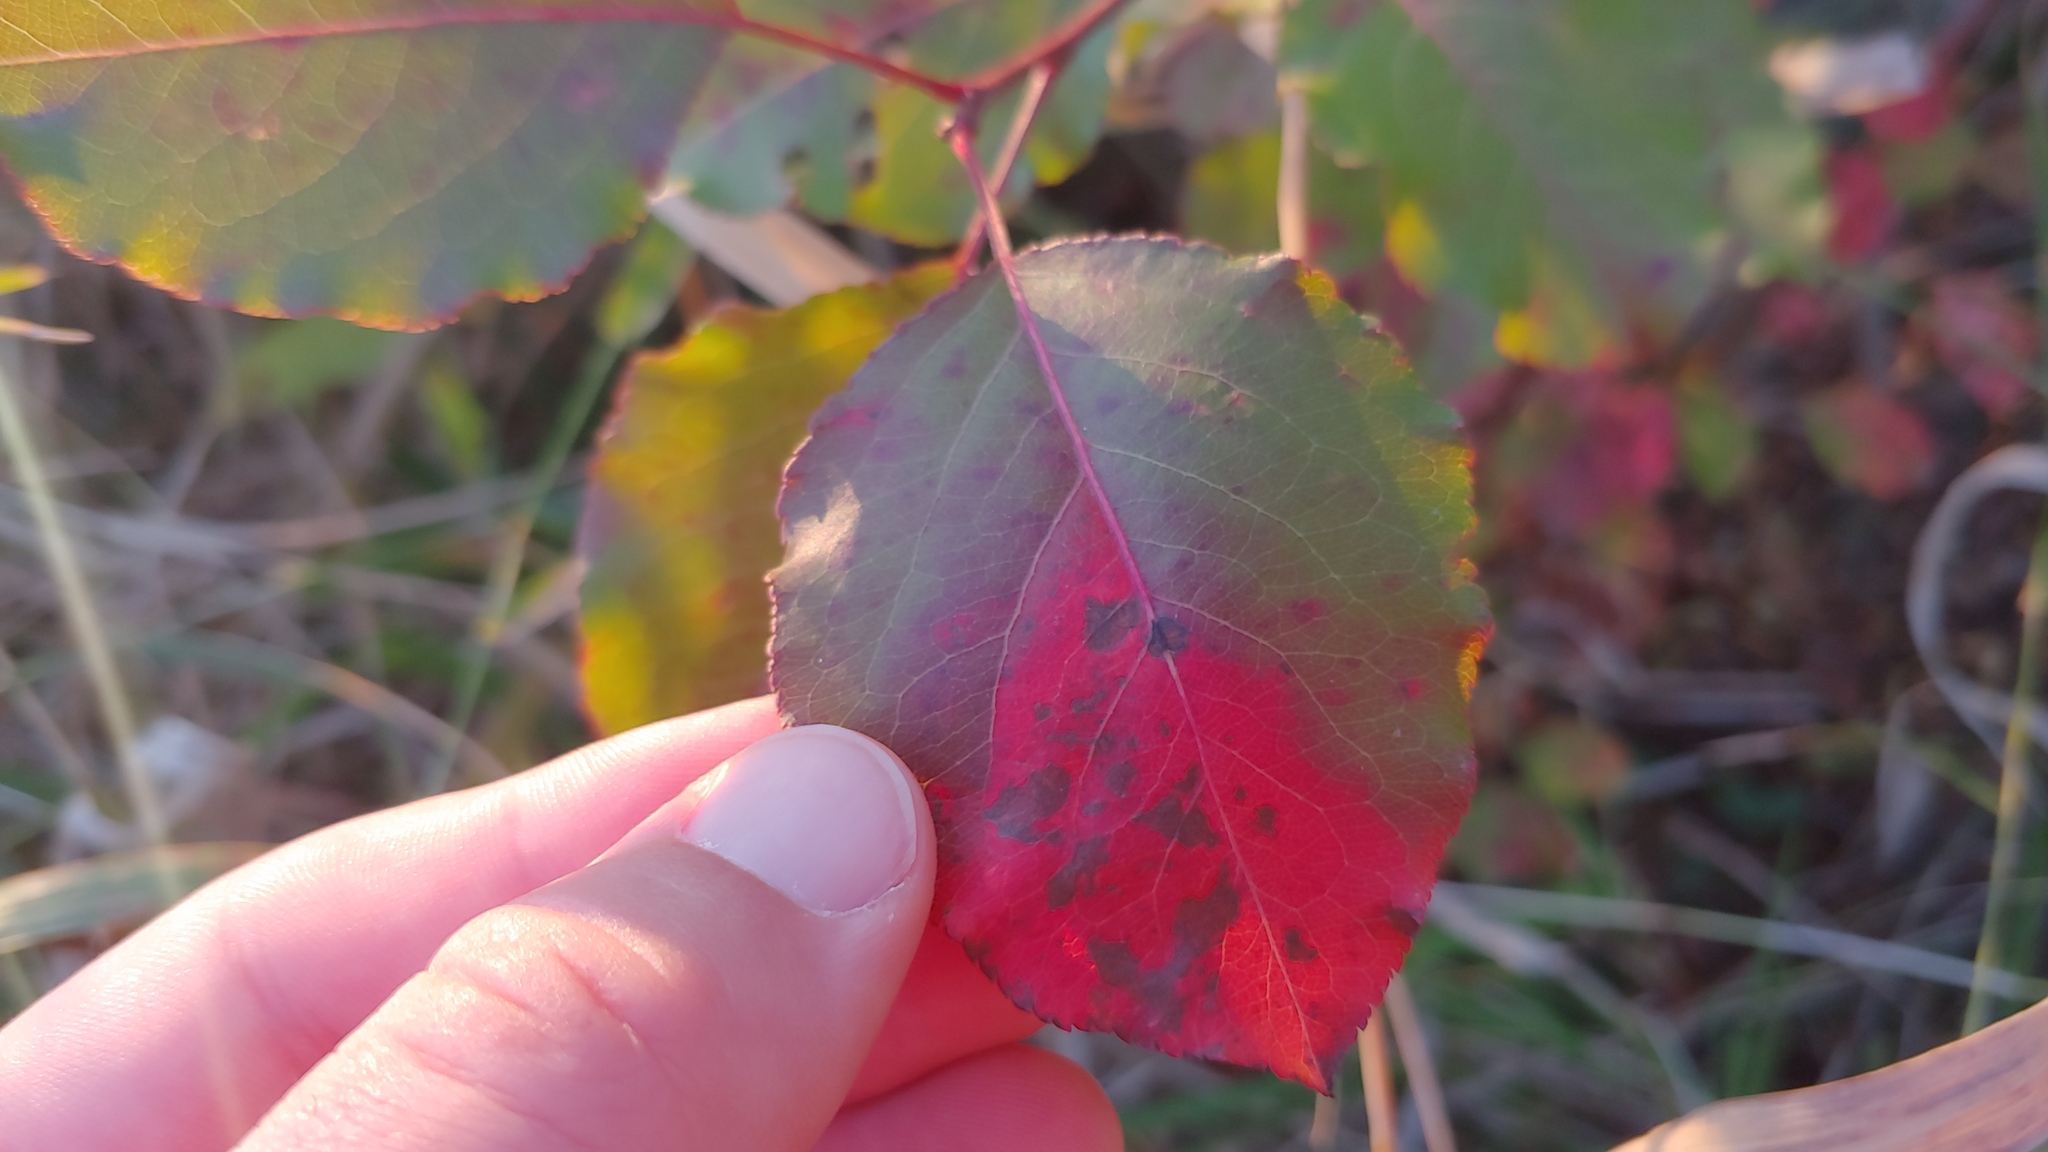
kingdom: Plantae
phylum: Tracheophyta
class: Magnoliopsida
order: Rosales
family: Rosaceae
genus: Pyrus
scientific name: Pyrus calleryana
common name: Callery pear
